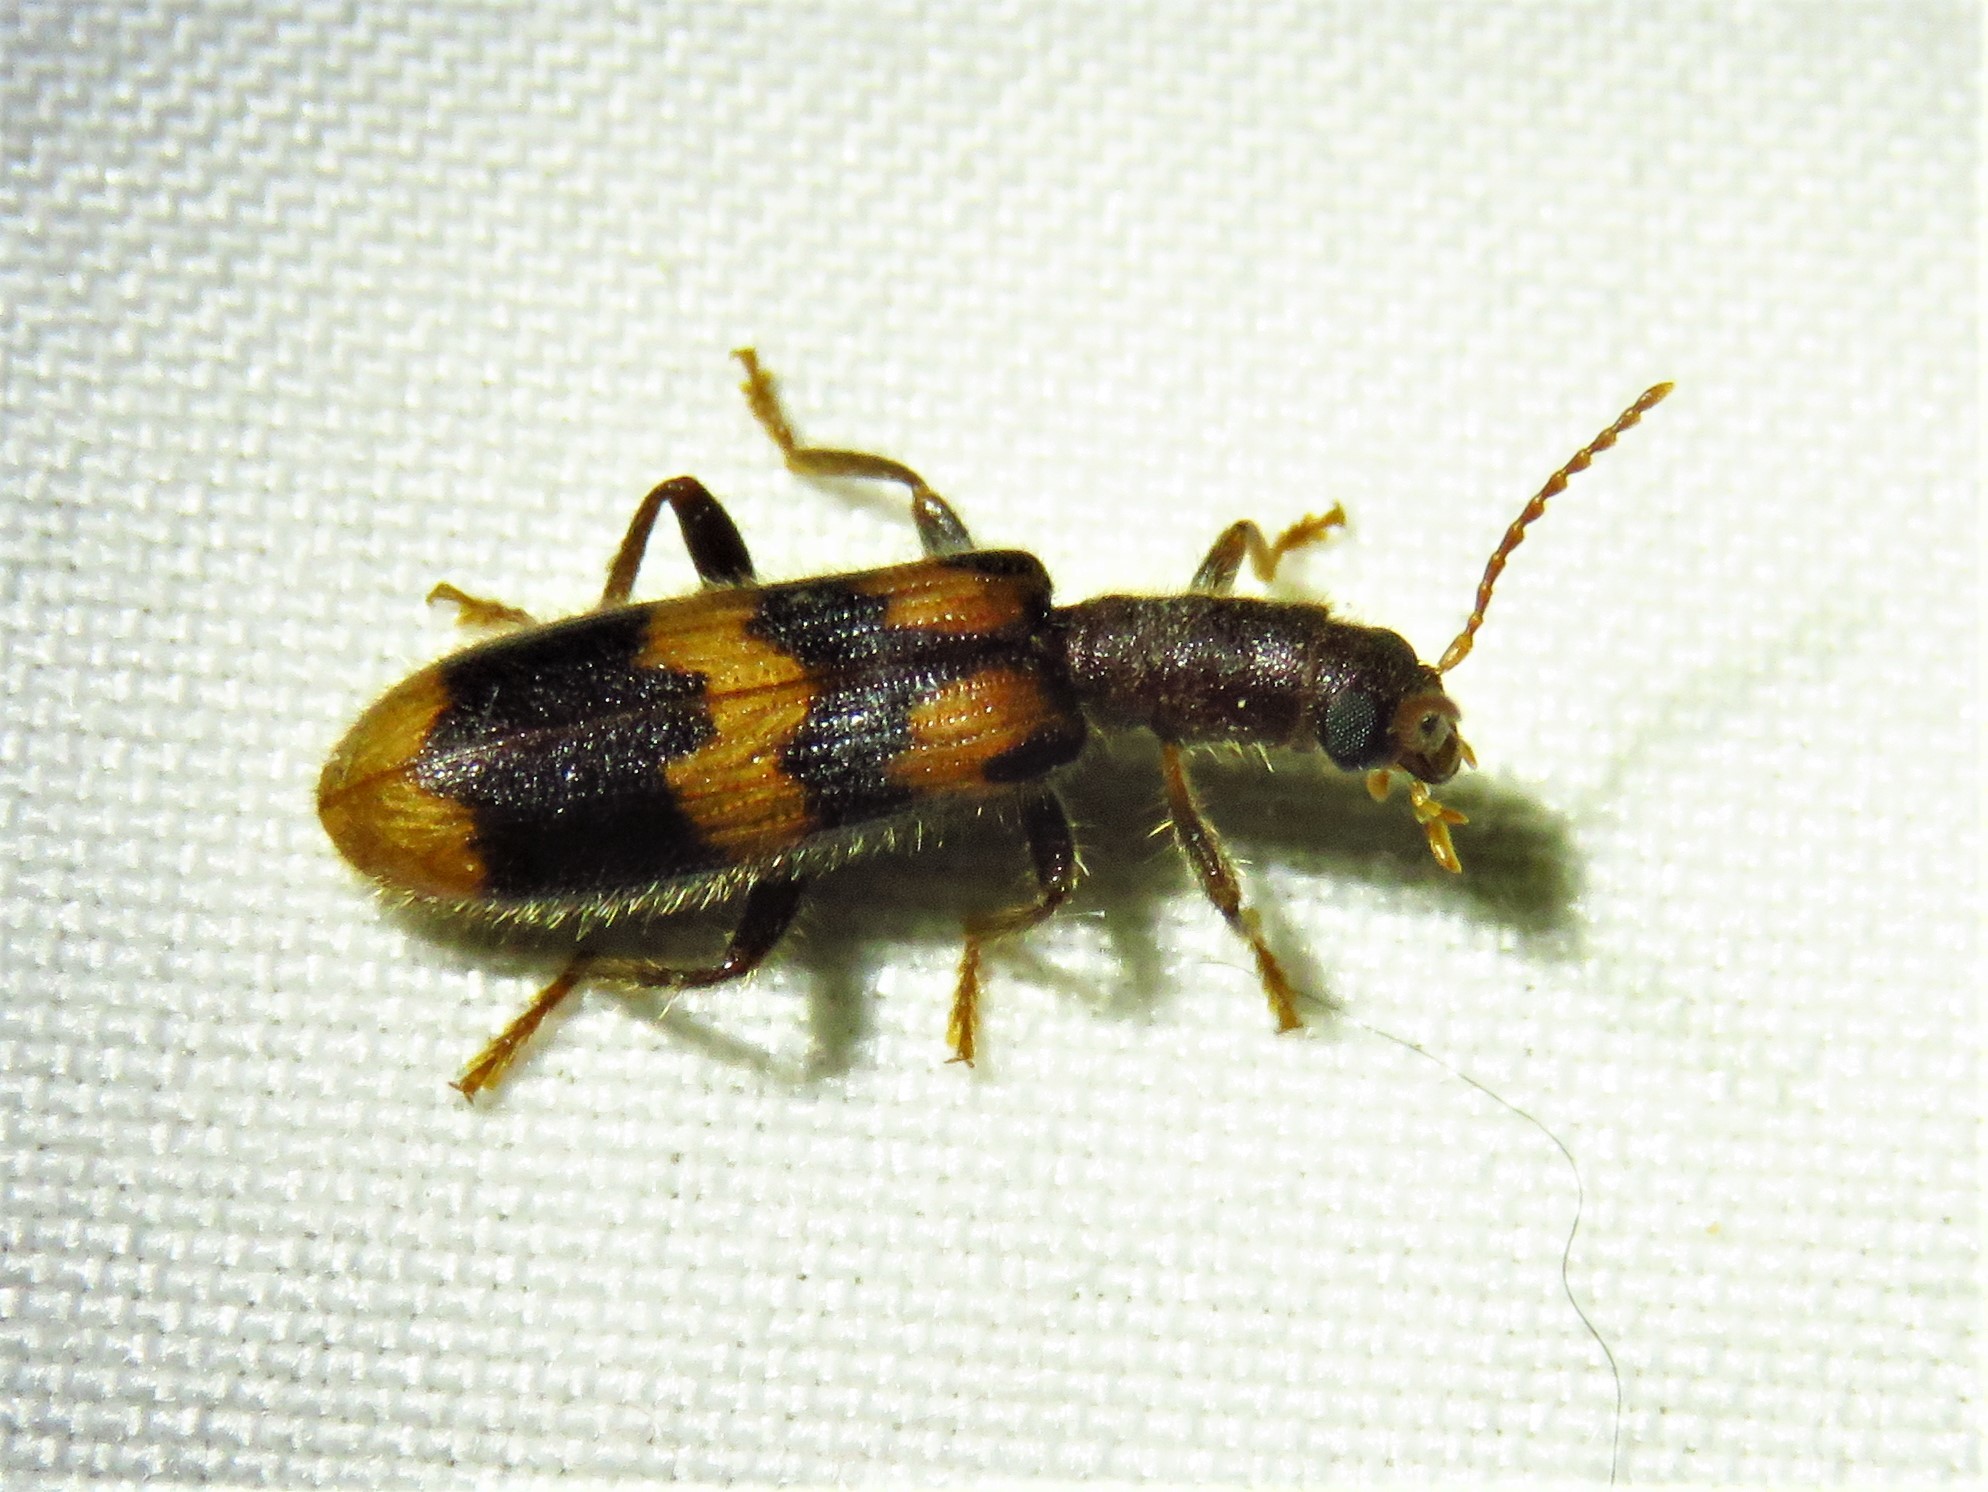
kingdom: Animalia
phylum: Arthropoda
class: Insecta
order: Coleoptera
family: Cleridae
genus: Cymatodera
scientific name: Cymatodera sirpata
